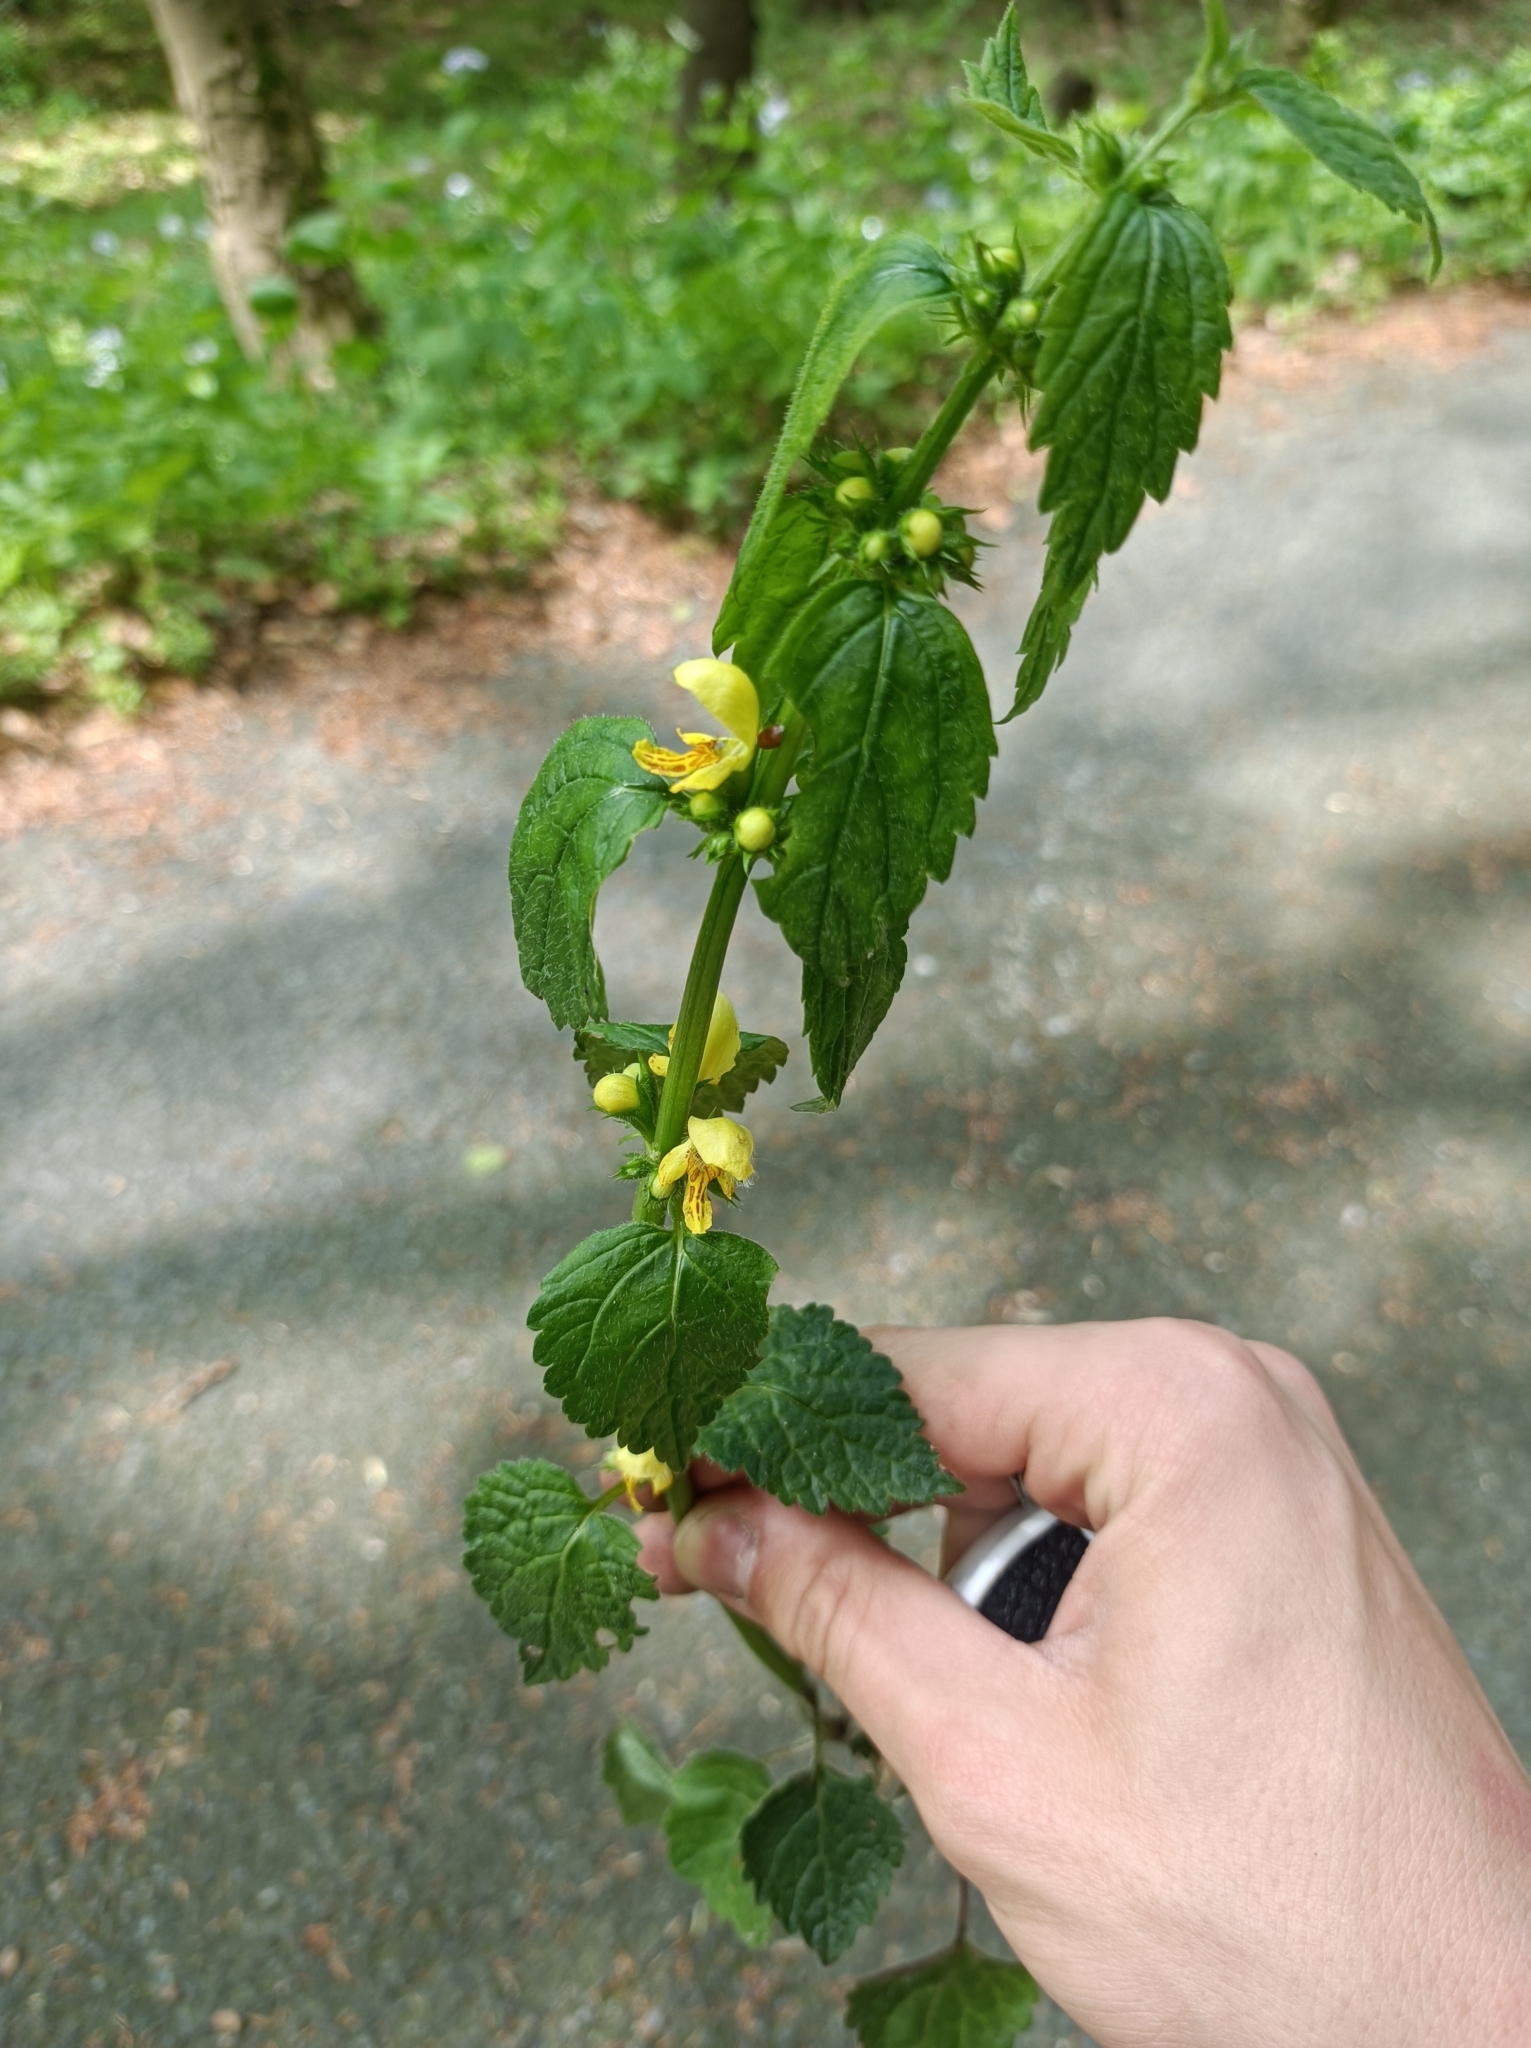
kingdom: Plantae
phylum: Tracheophyta
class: Magnoliopsida
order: Lamiales
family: Lamiaceae
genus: Lamium
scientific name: Lamium galeobdolon
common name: Yellow archangel
